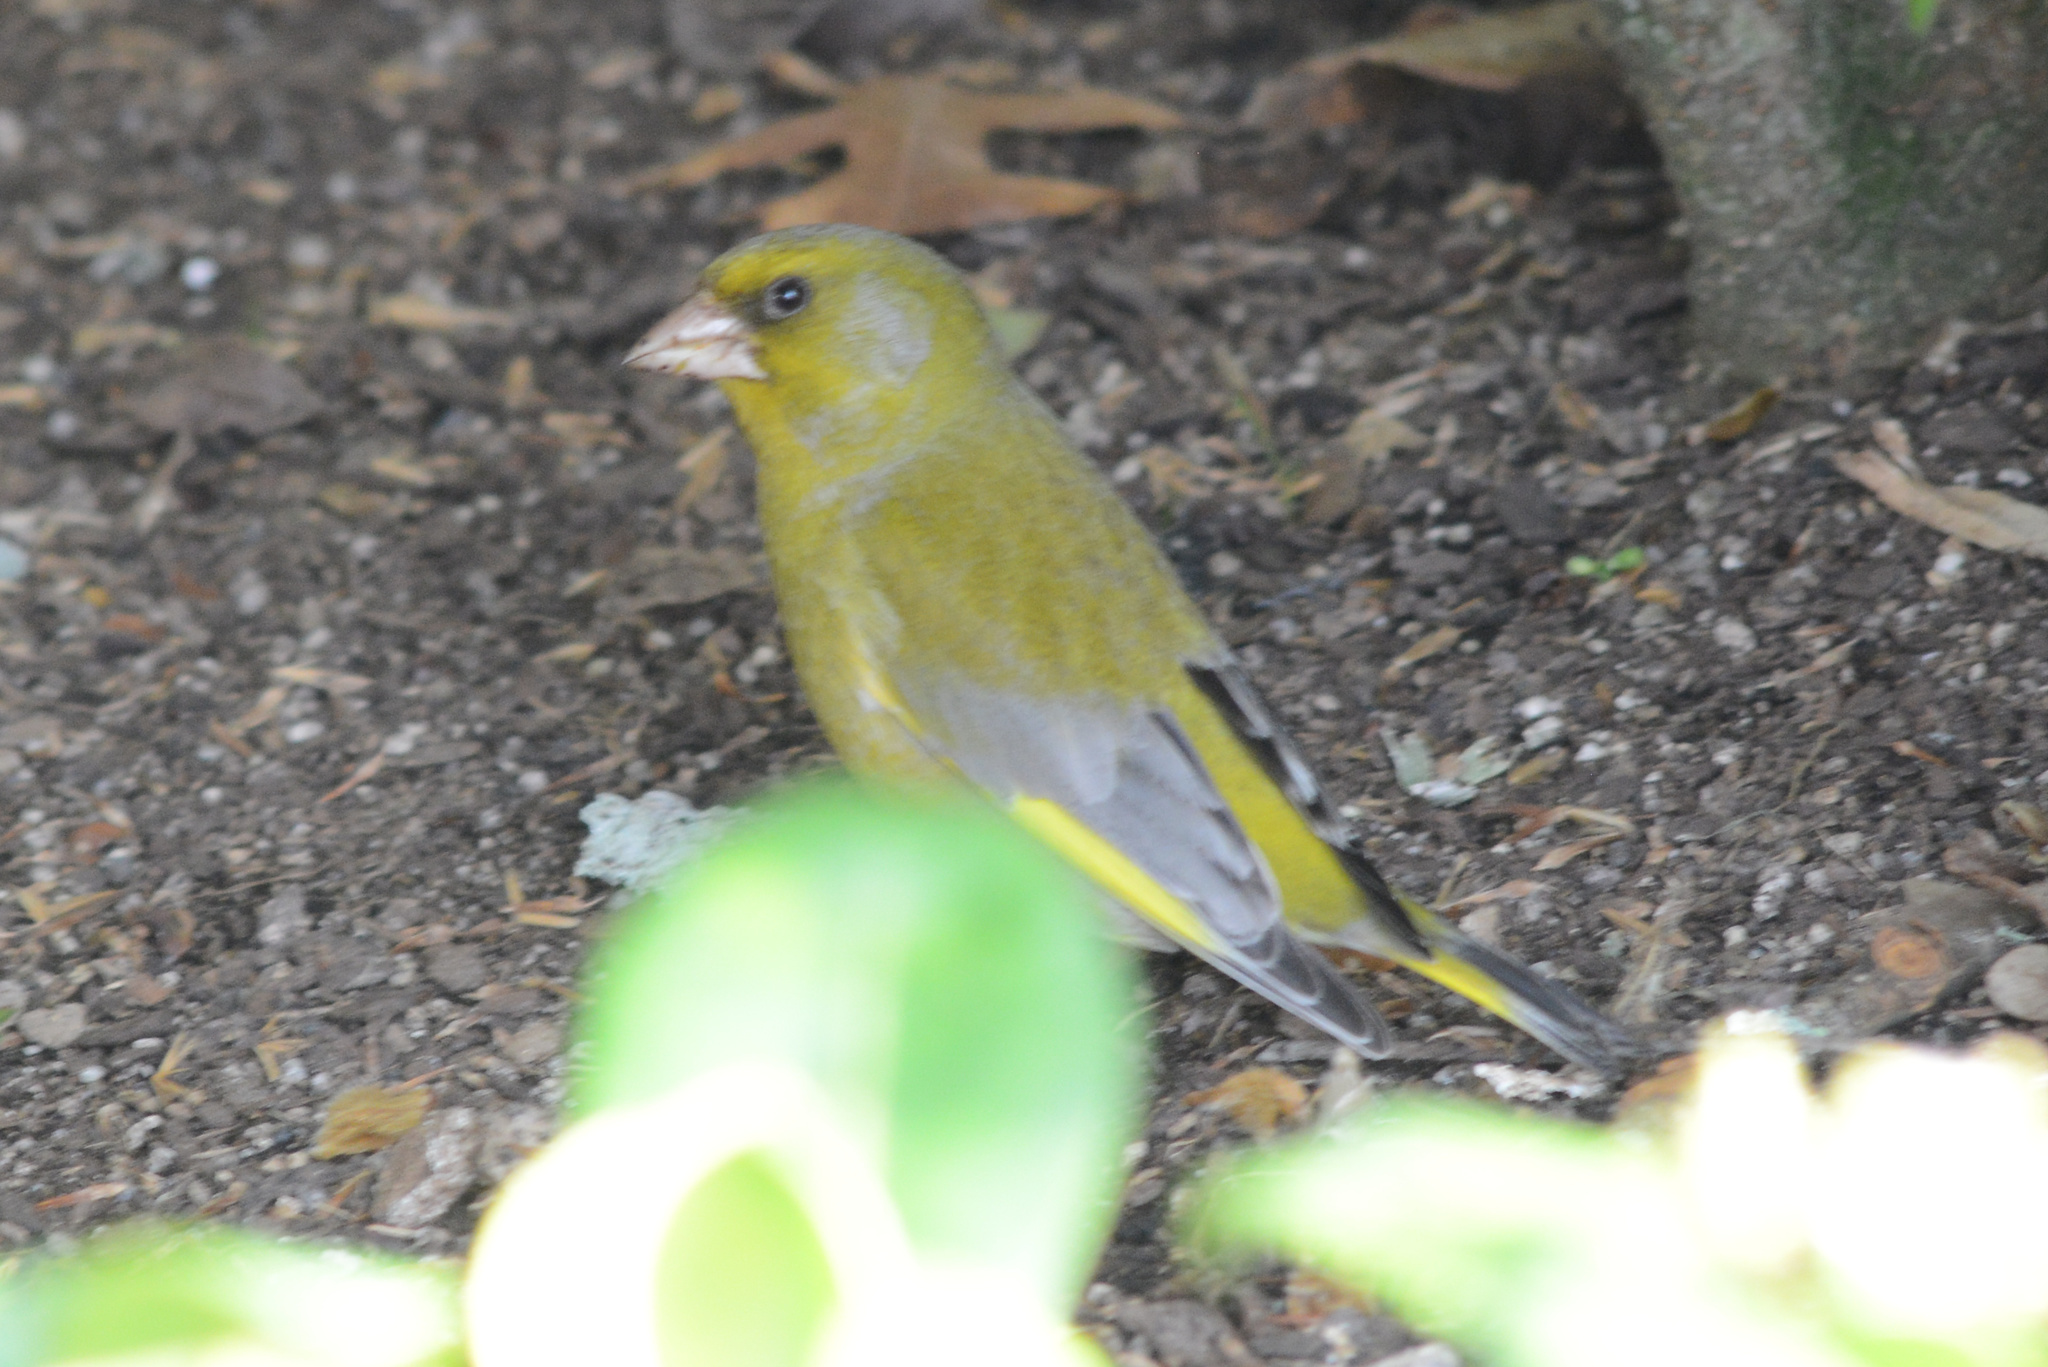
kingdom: Plantae
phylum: Tracheophyta
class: Liliopsida
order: Poales
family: Poaceae
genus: Chloris
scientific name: Chloris chloris
